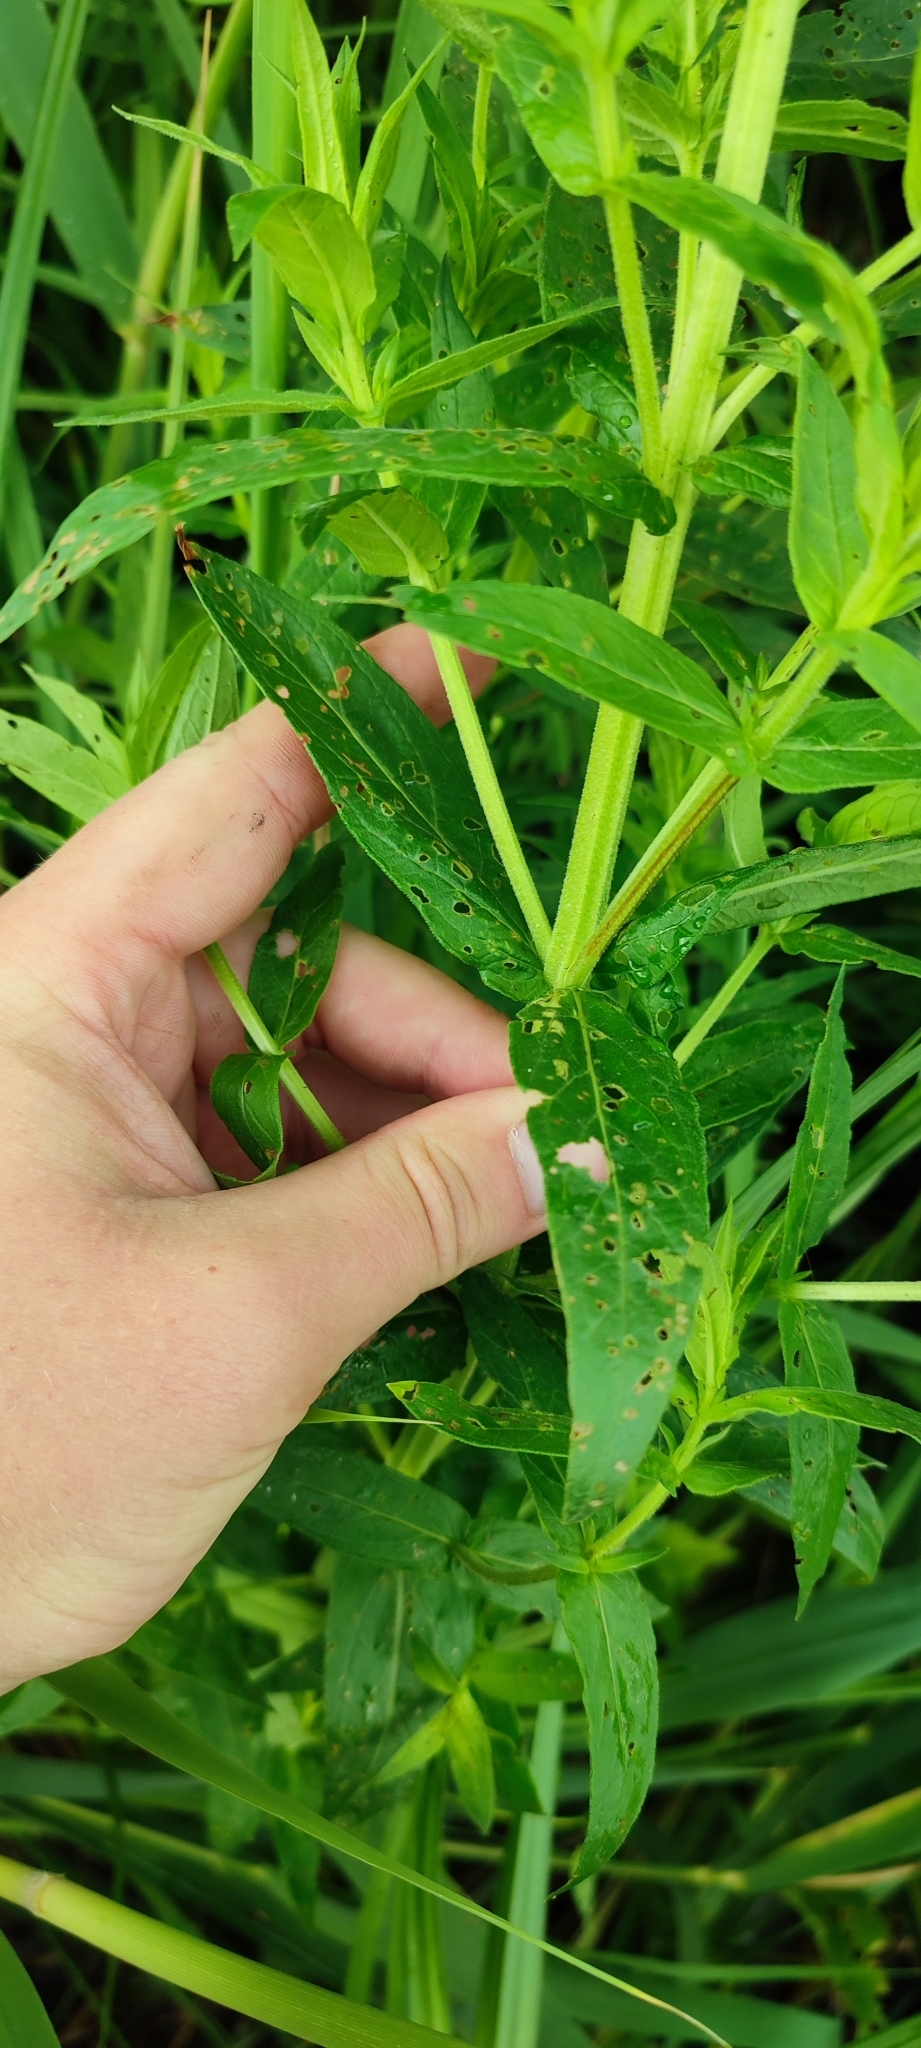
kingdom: Plantae
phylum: Tracheophyta
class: Magnoliopsida
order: Myrtales
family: Lythraceae
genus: Lythrum
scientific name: Lythrum salicaria
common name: Purple loosestrife
